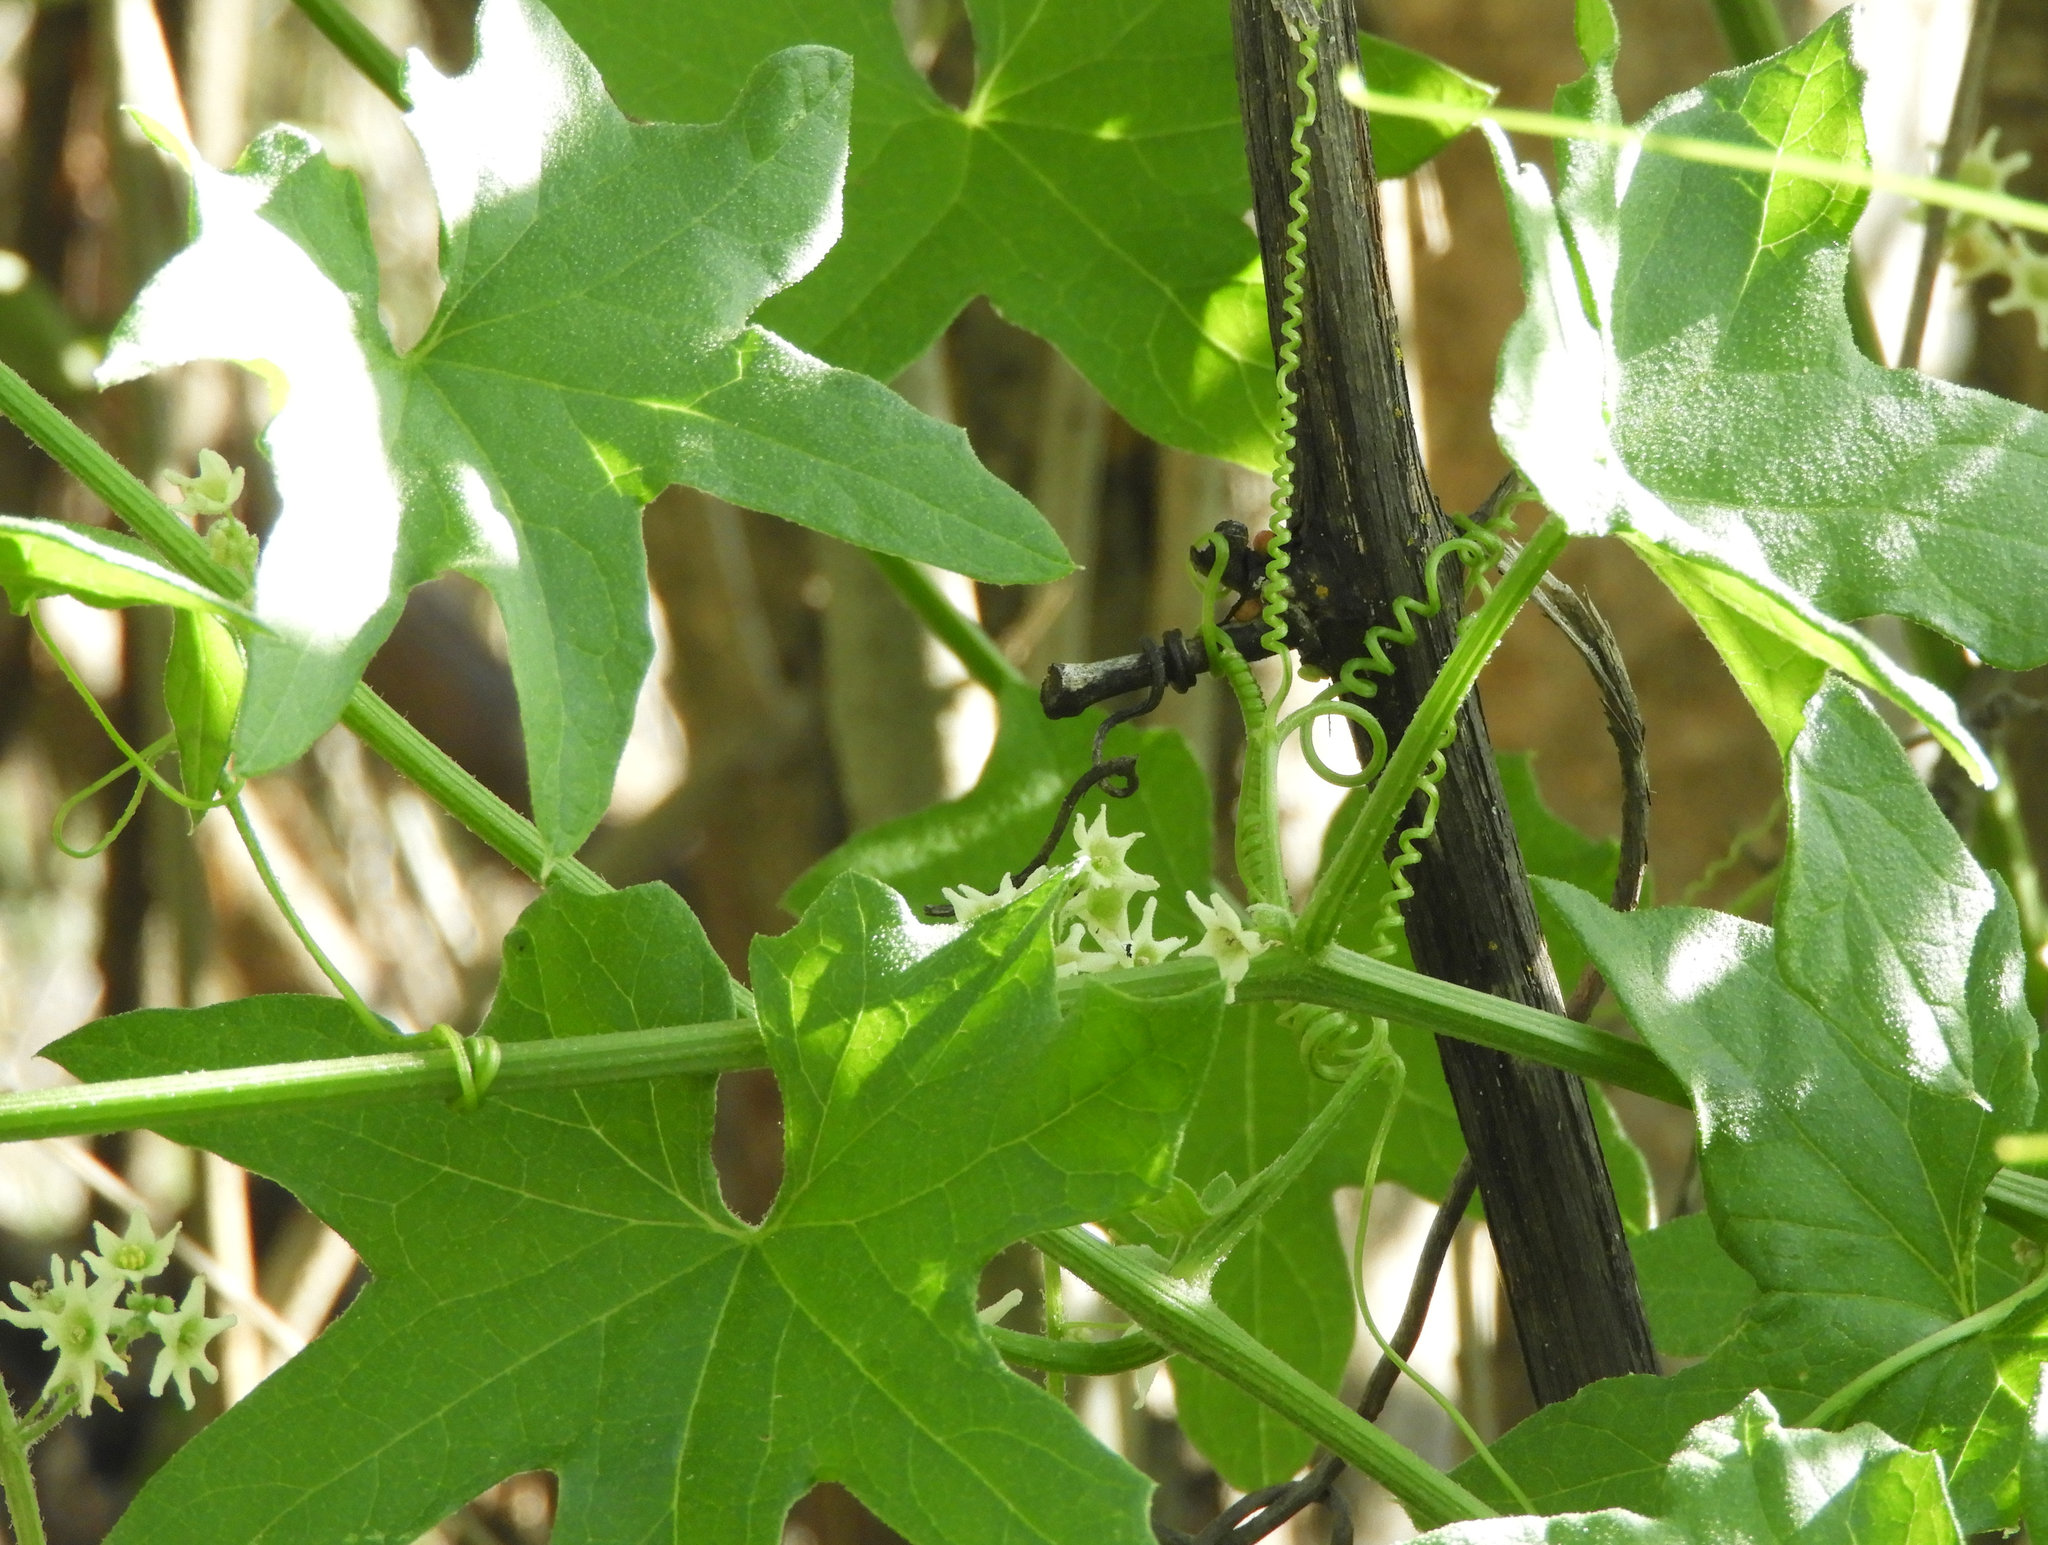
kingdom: Plantae
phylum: Tracheophyta
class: Magnoliopsida
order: Cucurbitales
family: Cucurbitaceae
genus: Marah
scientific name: Marah fabacea
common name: California manroot
